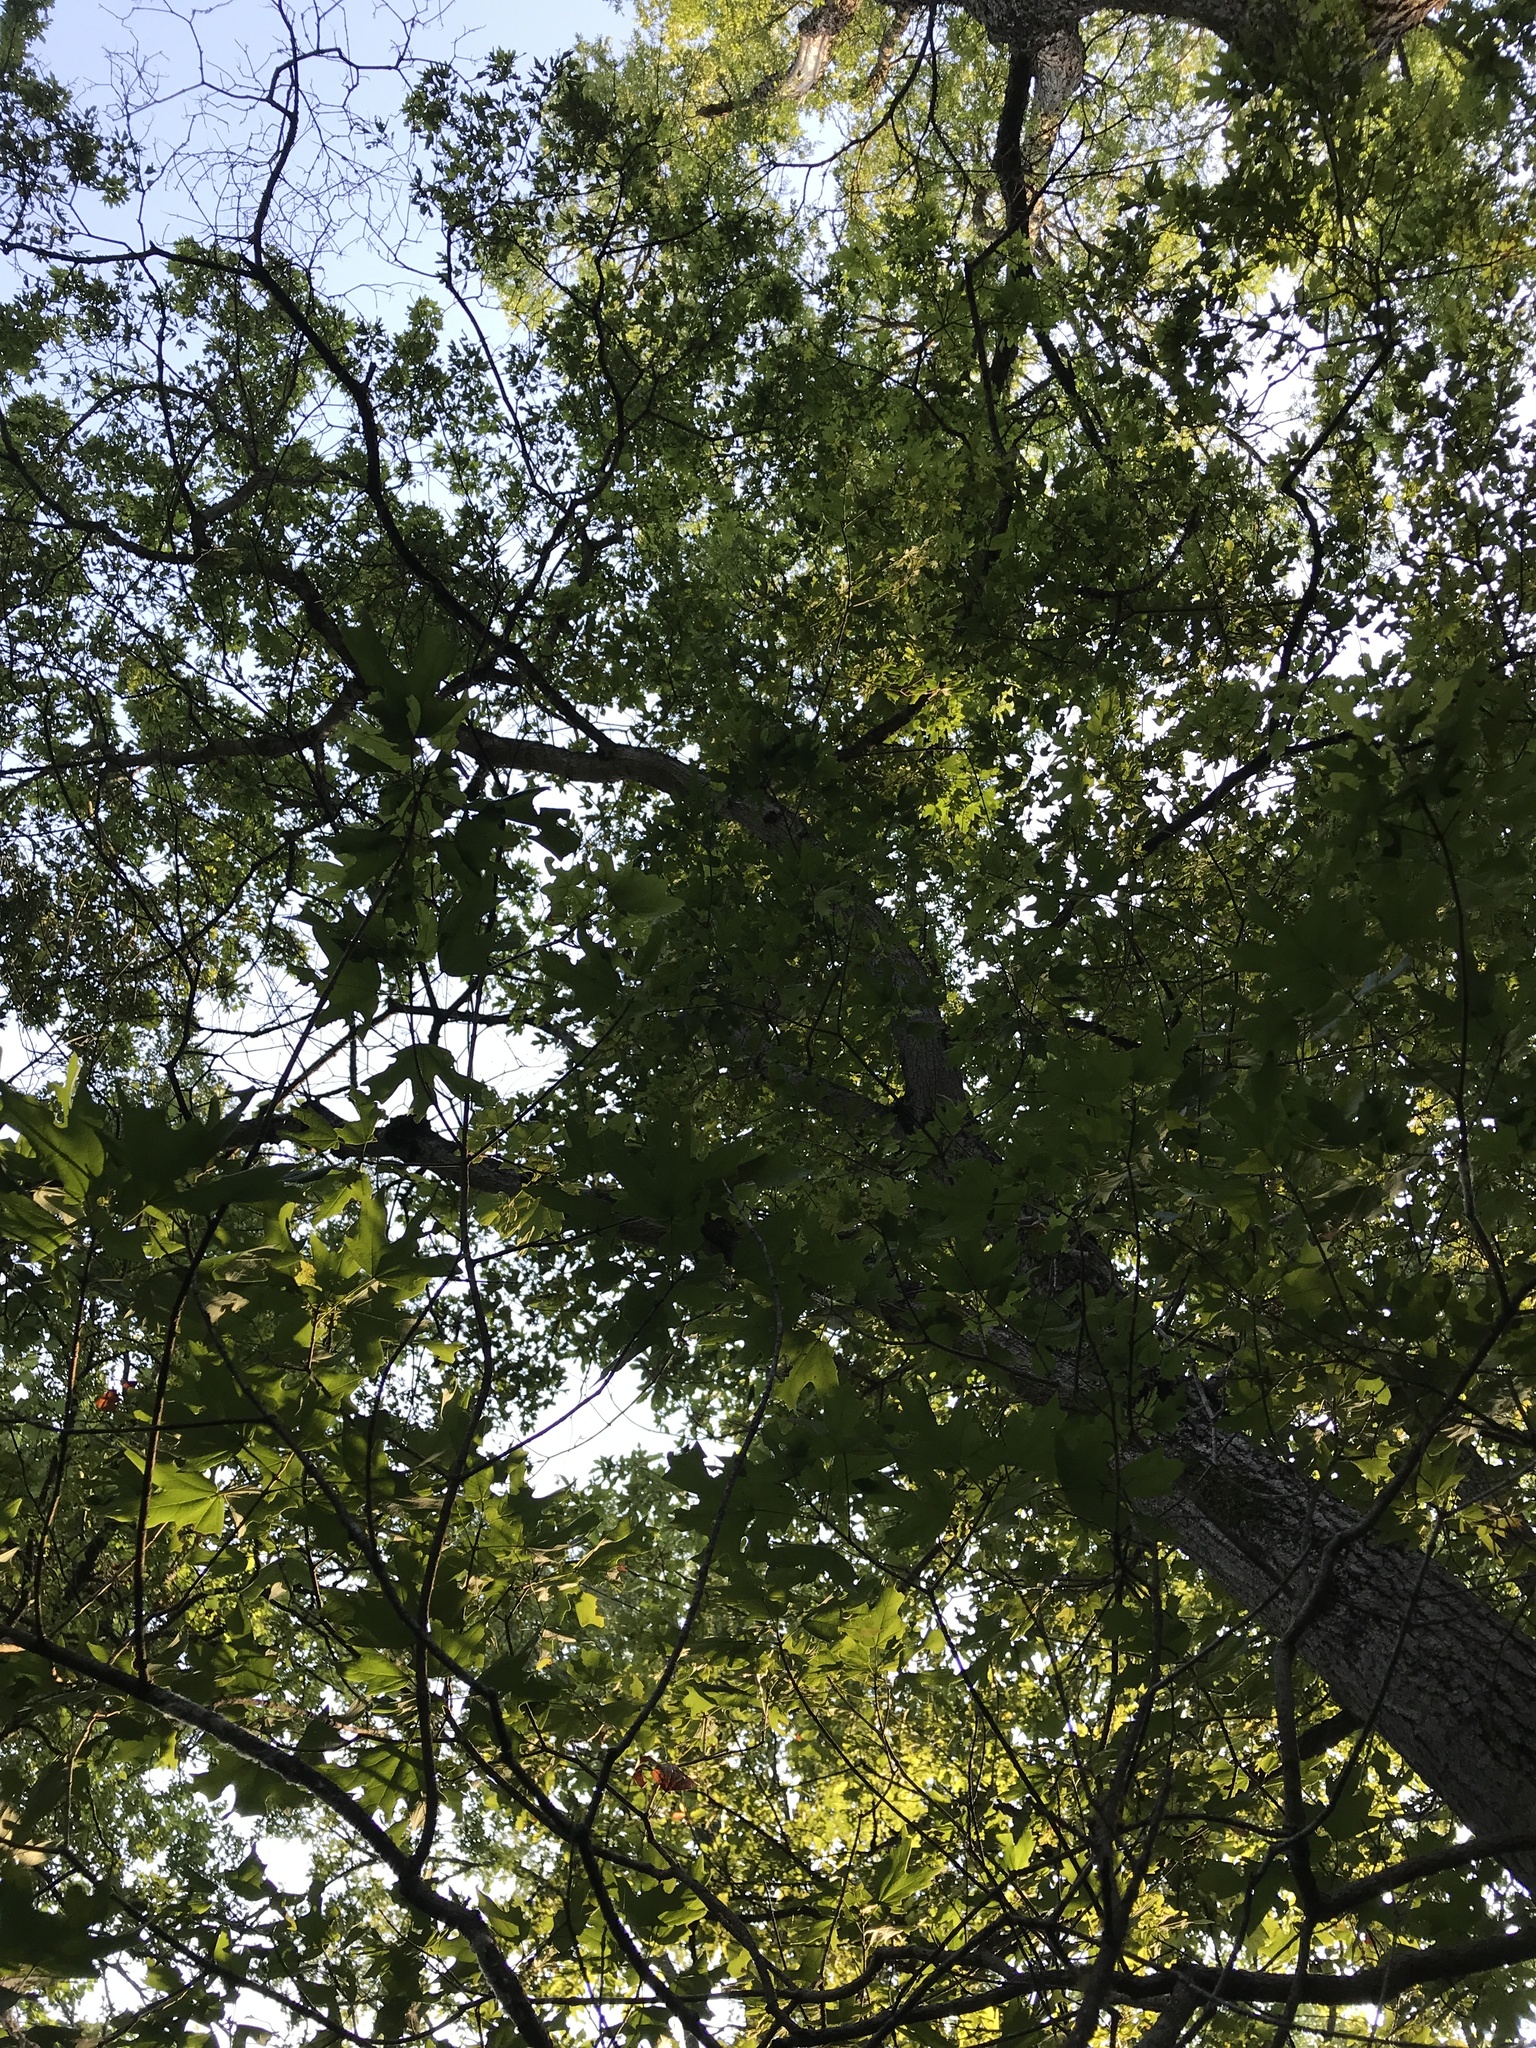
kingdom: Plantae
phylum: Tracheophyta
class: Magnoliopsida
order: Sapindales
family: Sapindaceae
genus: Acer
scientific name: Acer grandidentatum
